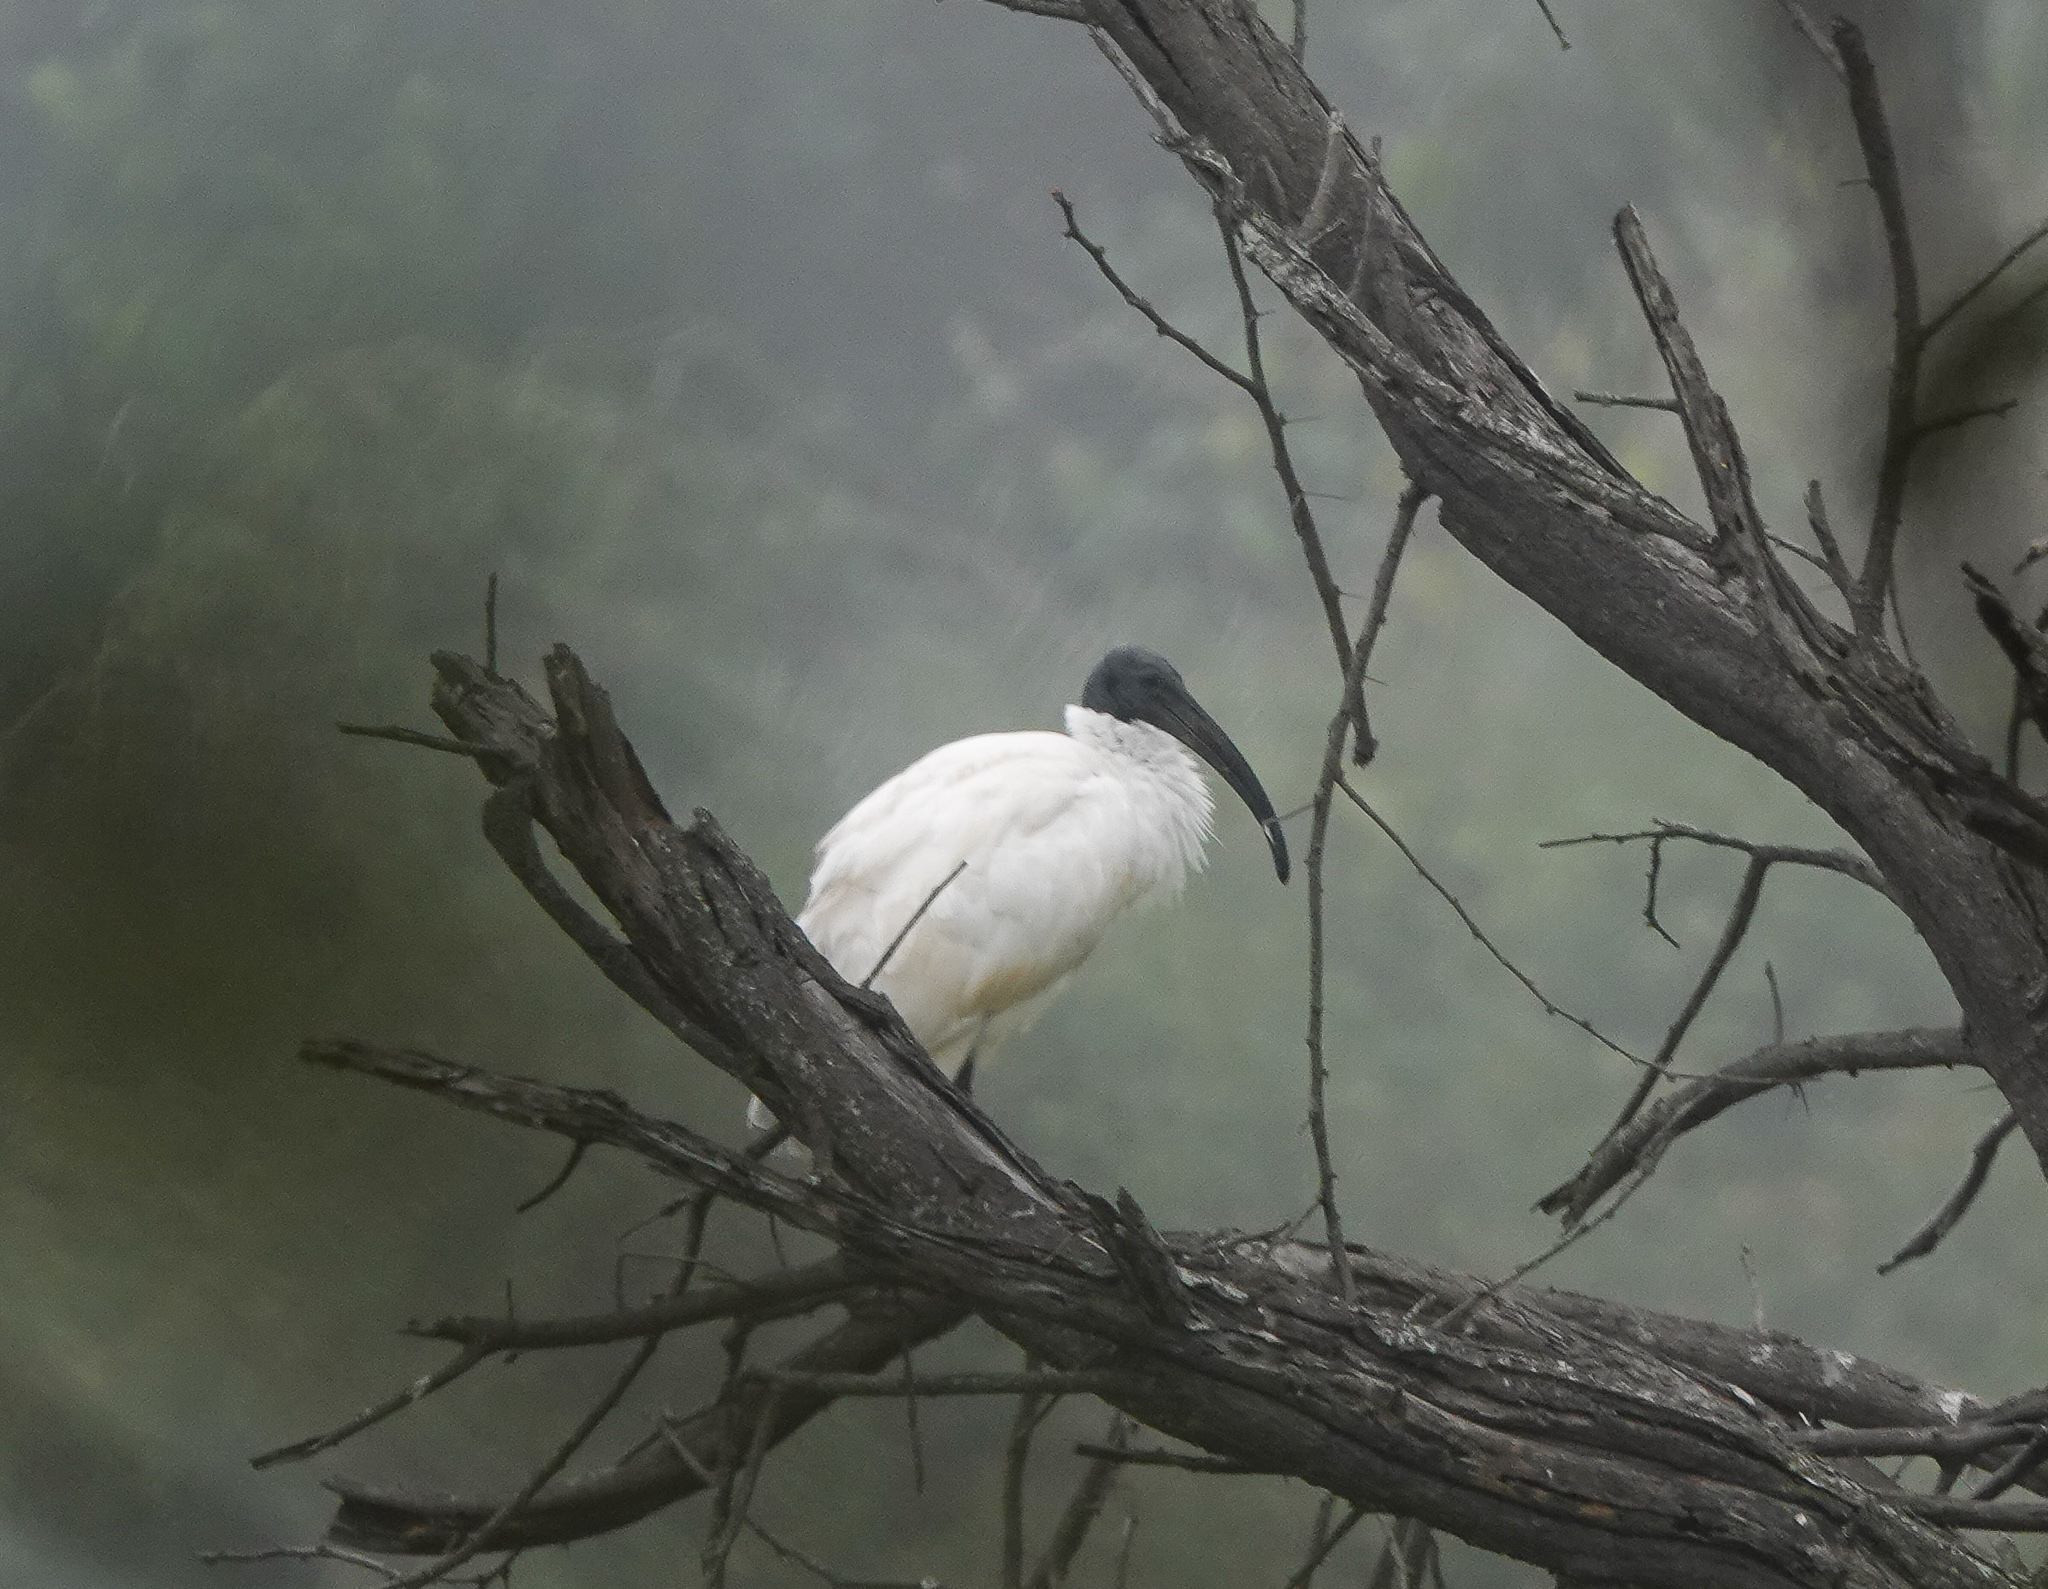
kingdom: Animalia
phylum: Chordata
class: Aves
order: Pelecaniformes
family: Threskiornithidae
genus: Threskiornis
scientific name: Threskiornis melanocephalus
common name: Black-headed ibis
